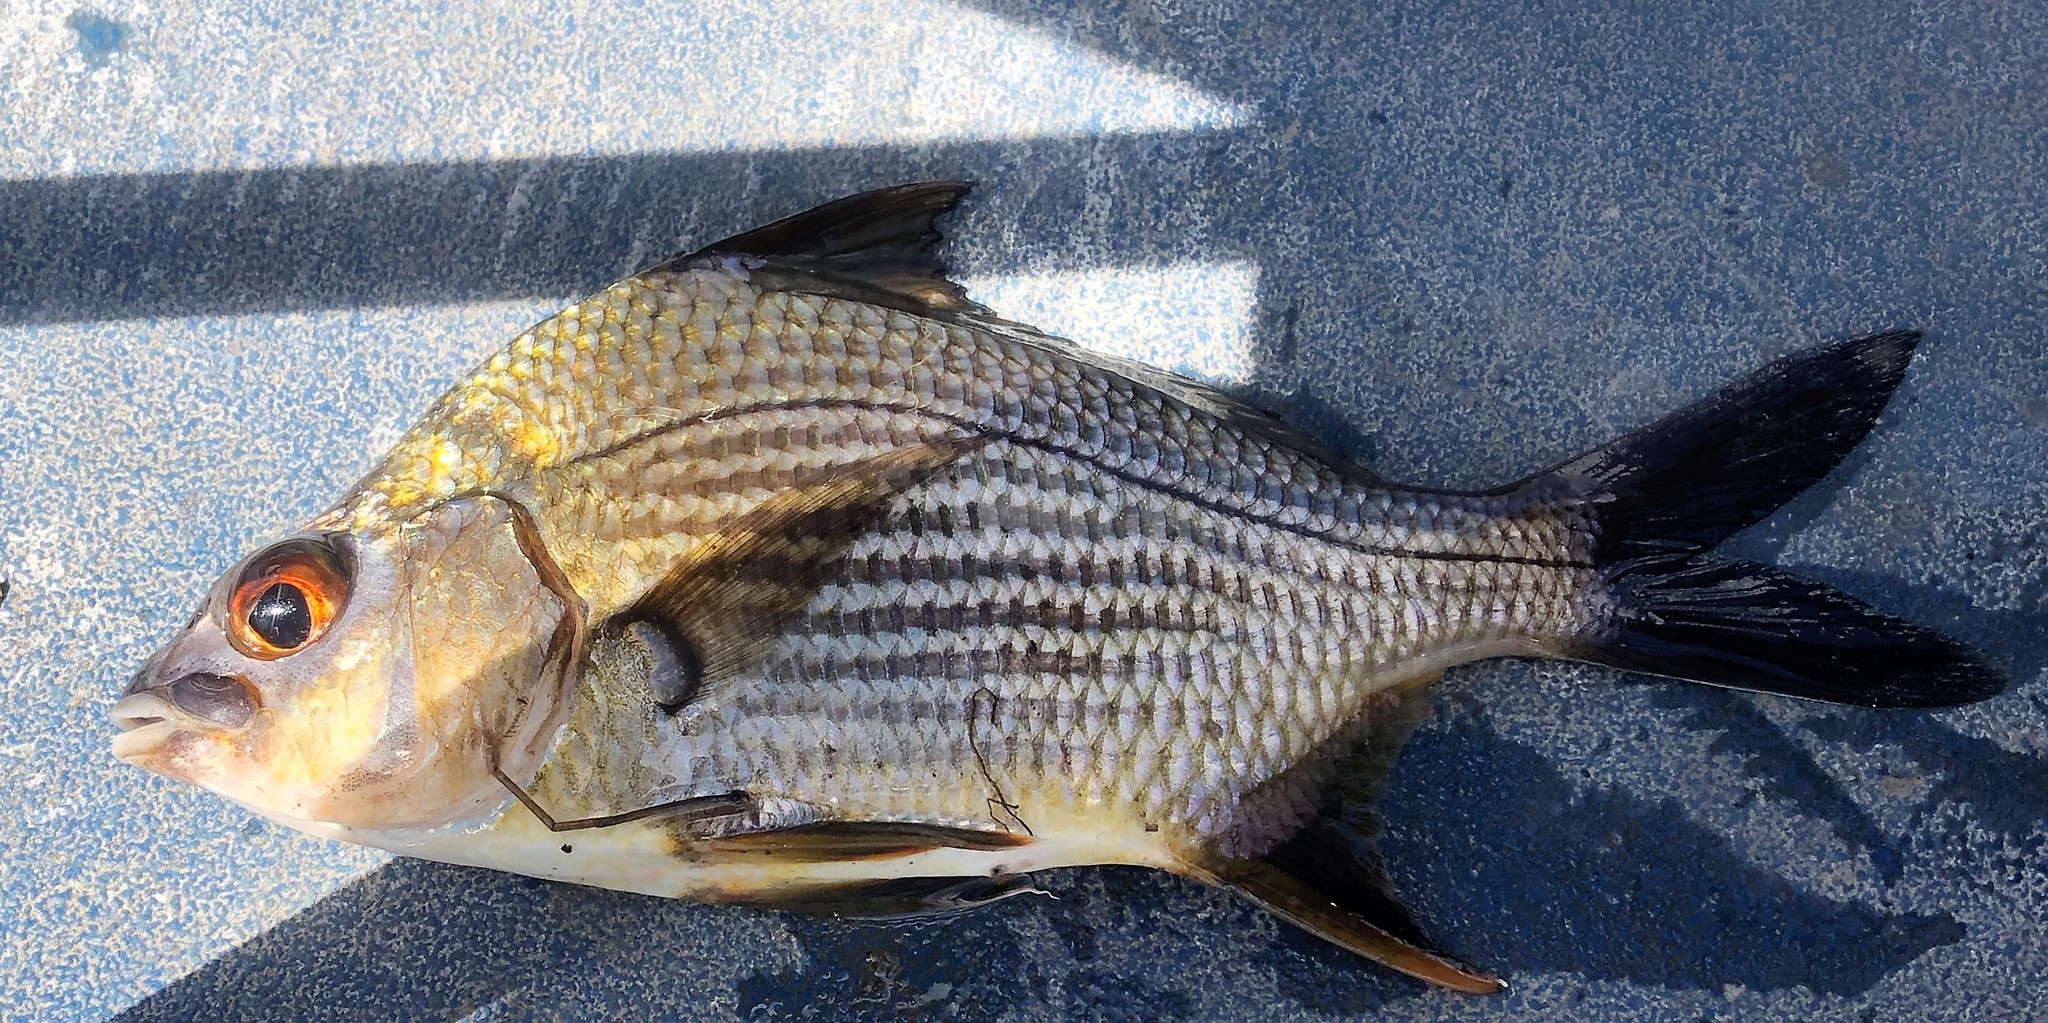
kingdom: Animalia
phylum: Chordata
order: Perciformes
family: Gerreidae
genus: Eugerres
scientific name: Eugerres plumieri
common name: Striped mojarra
